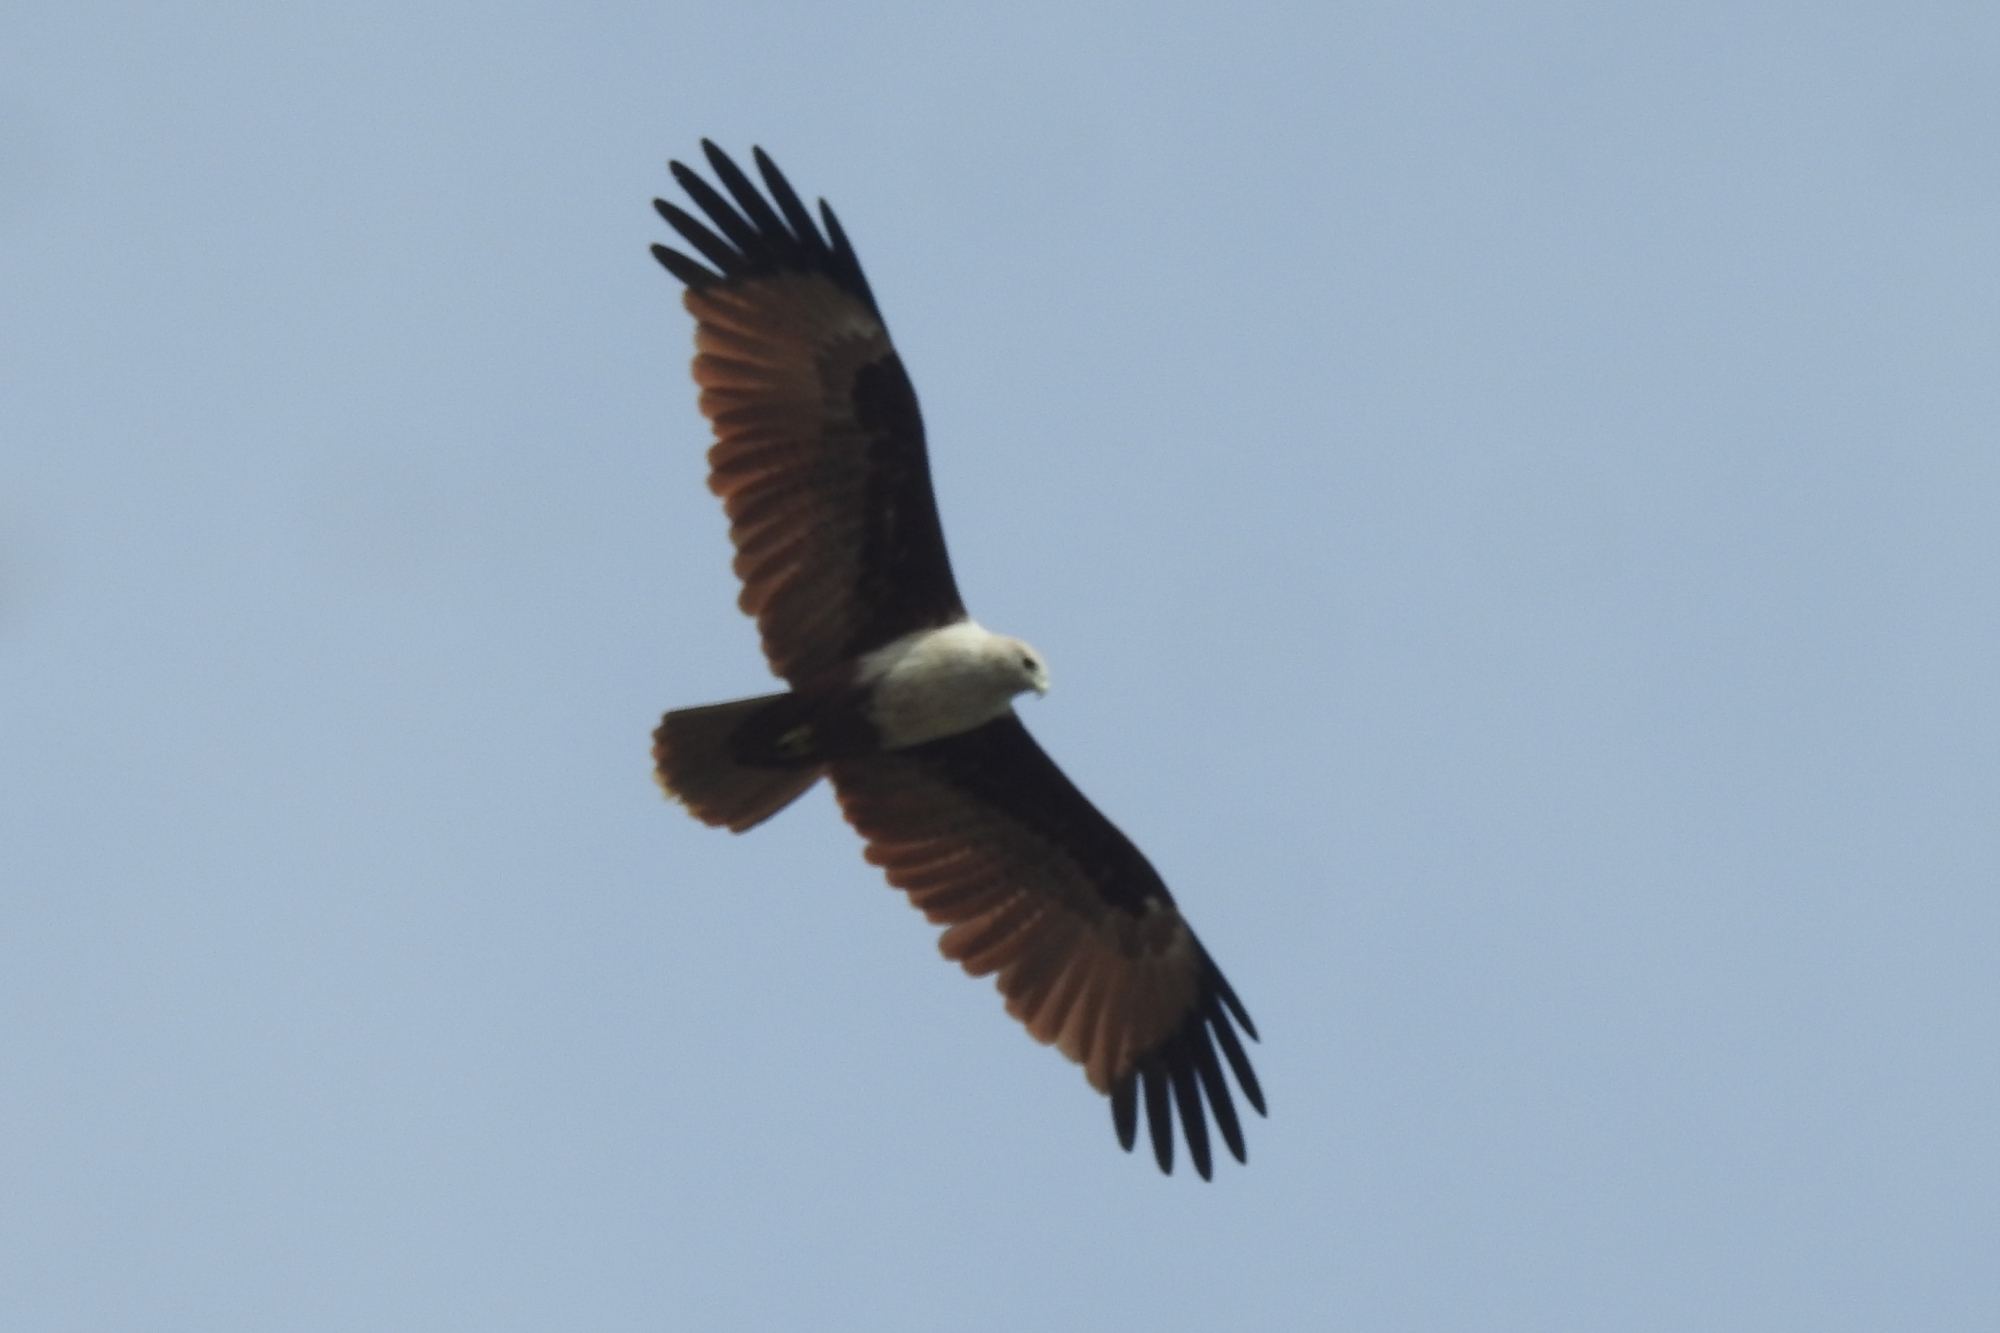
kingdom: Animalia
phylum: Chordata
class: Aves
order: Accipitriformes
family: Accipitridae
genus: Haliastur
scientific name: Haliastur indus
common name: Brahminy kite
